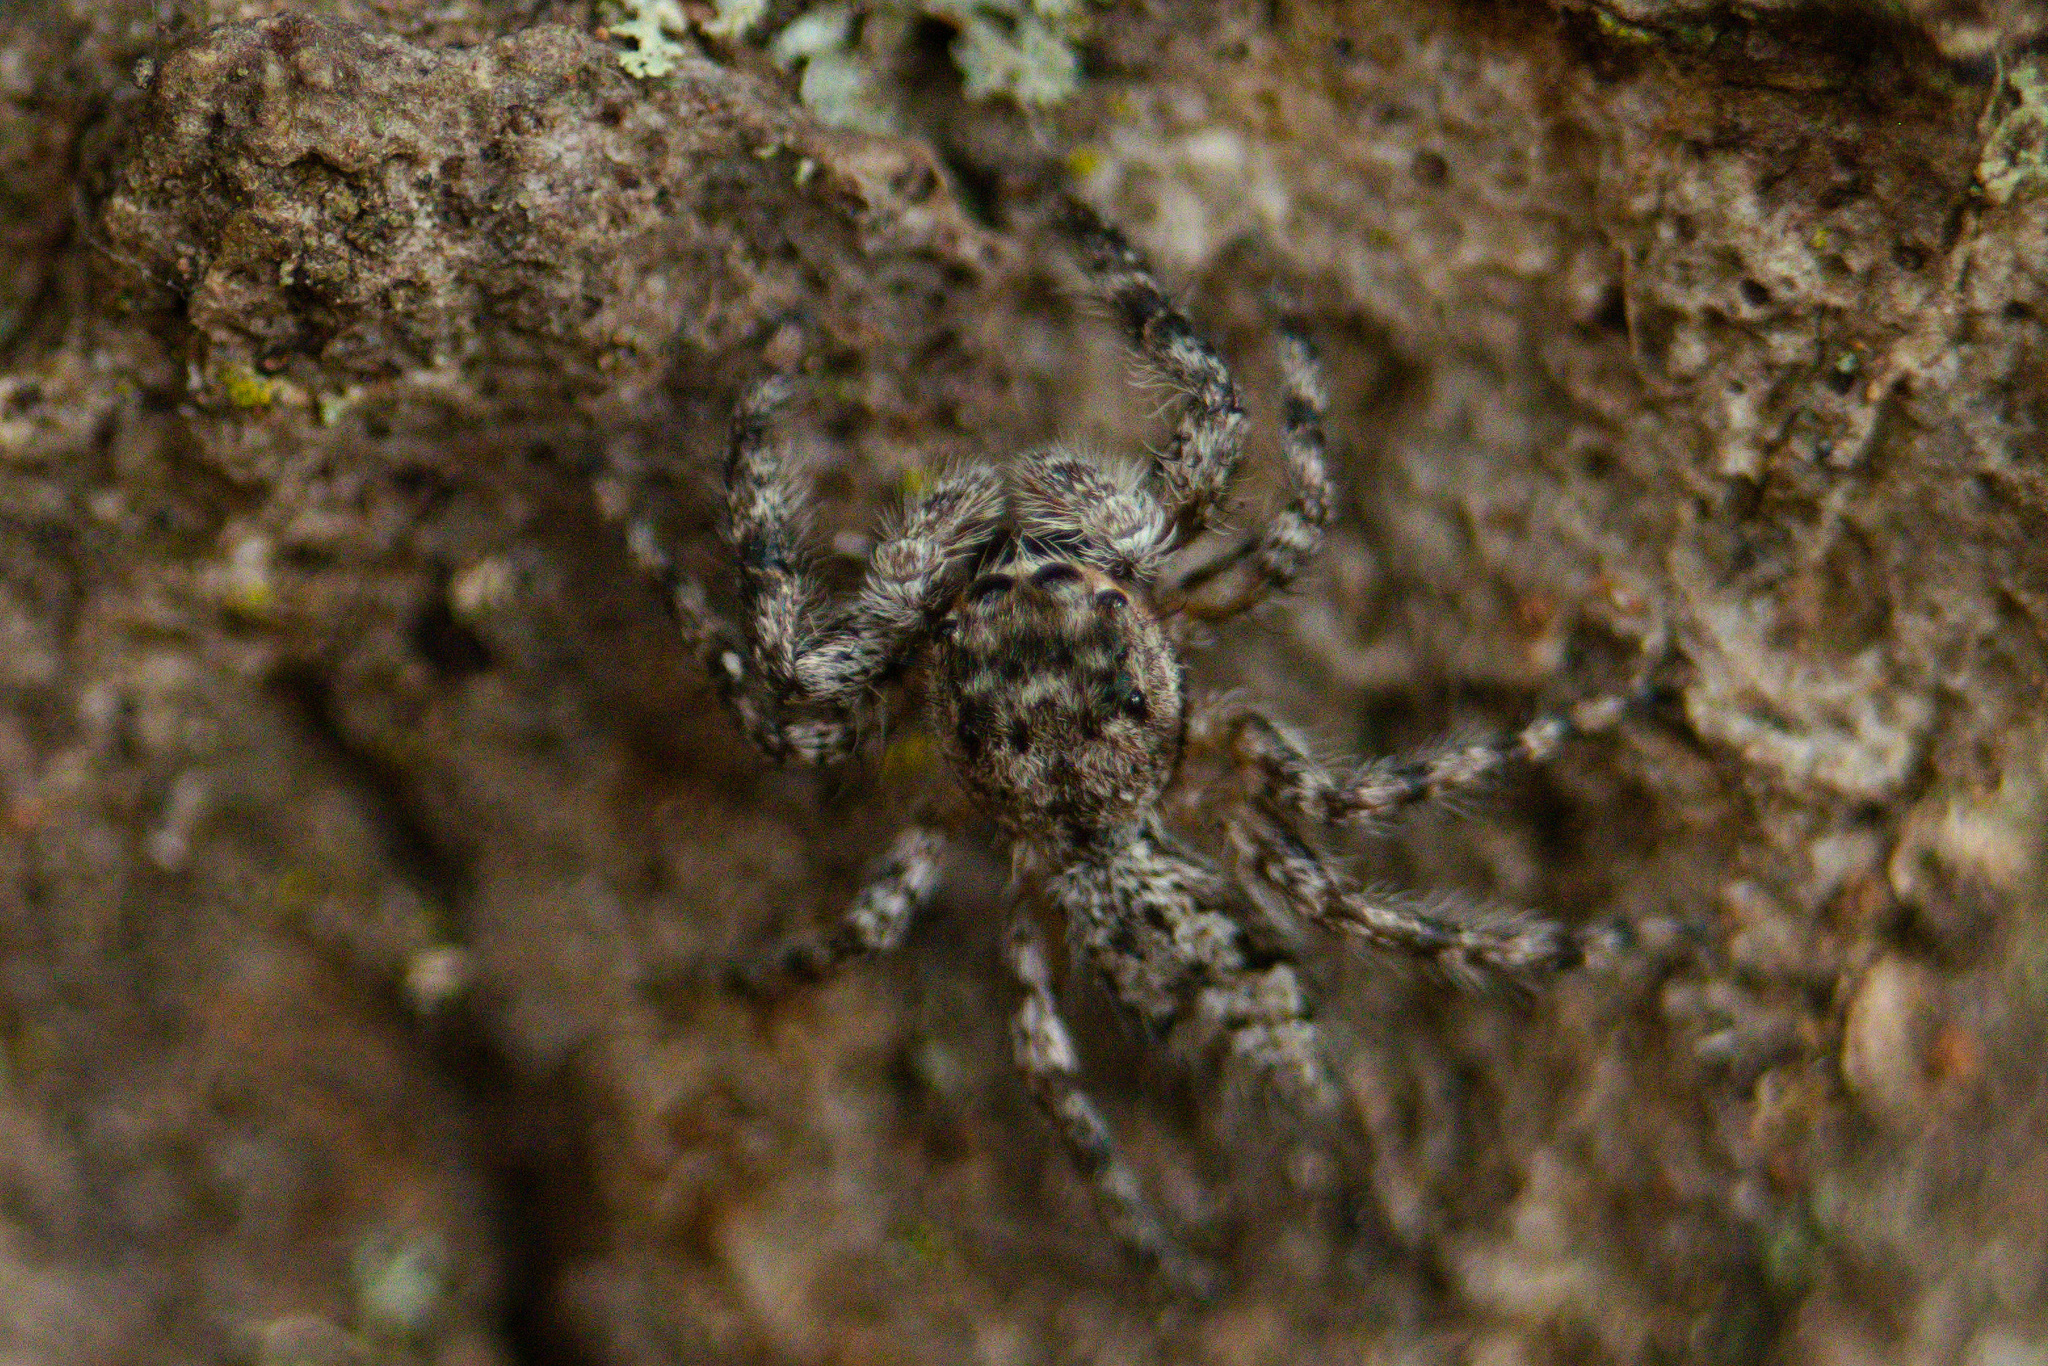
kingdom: Animalia
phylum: Arthropoda
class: Arachnida
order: Araneae
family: Salticidae
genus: Platycryptus
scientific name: Platycryptus undatus
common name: Tan jumping spider
